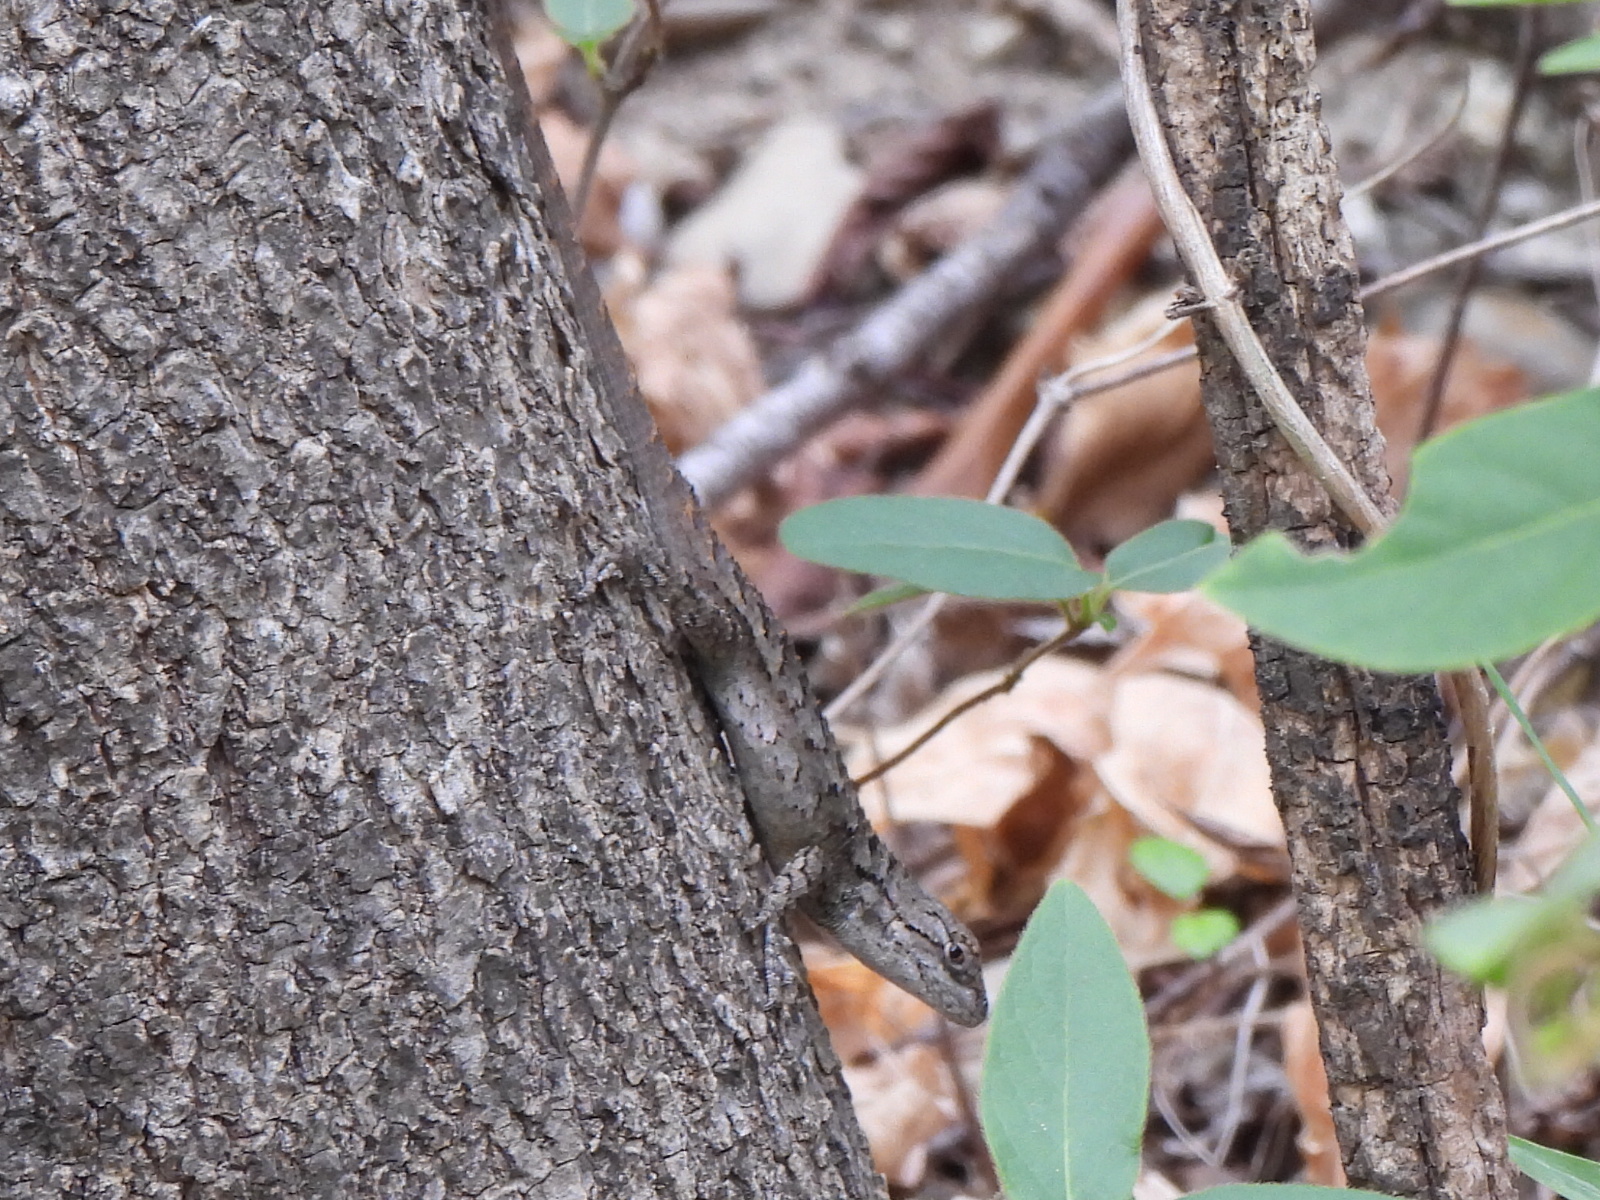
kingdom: Animalia
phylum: Chordata
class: Squamata
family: Phrynosomatidae
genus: Sceloporus
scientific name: Sceloporus olivaceus
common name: Texas spiny lizard
